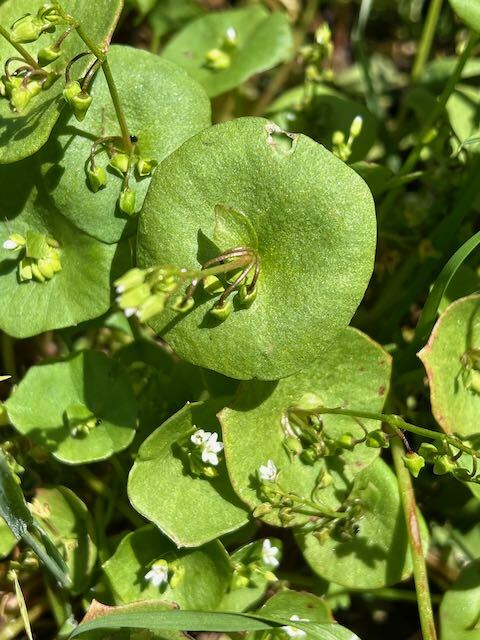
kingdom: Plantae
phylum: Tracheophyta
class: Magnoliopsida
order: Caryophyllales
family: Montiaceae
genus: Claytonia
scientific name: Claytonia perfoliata
